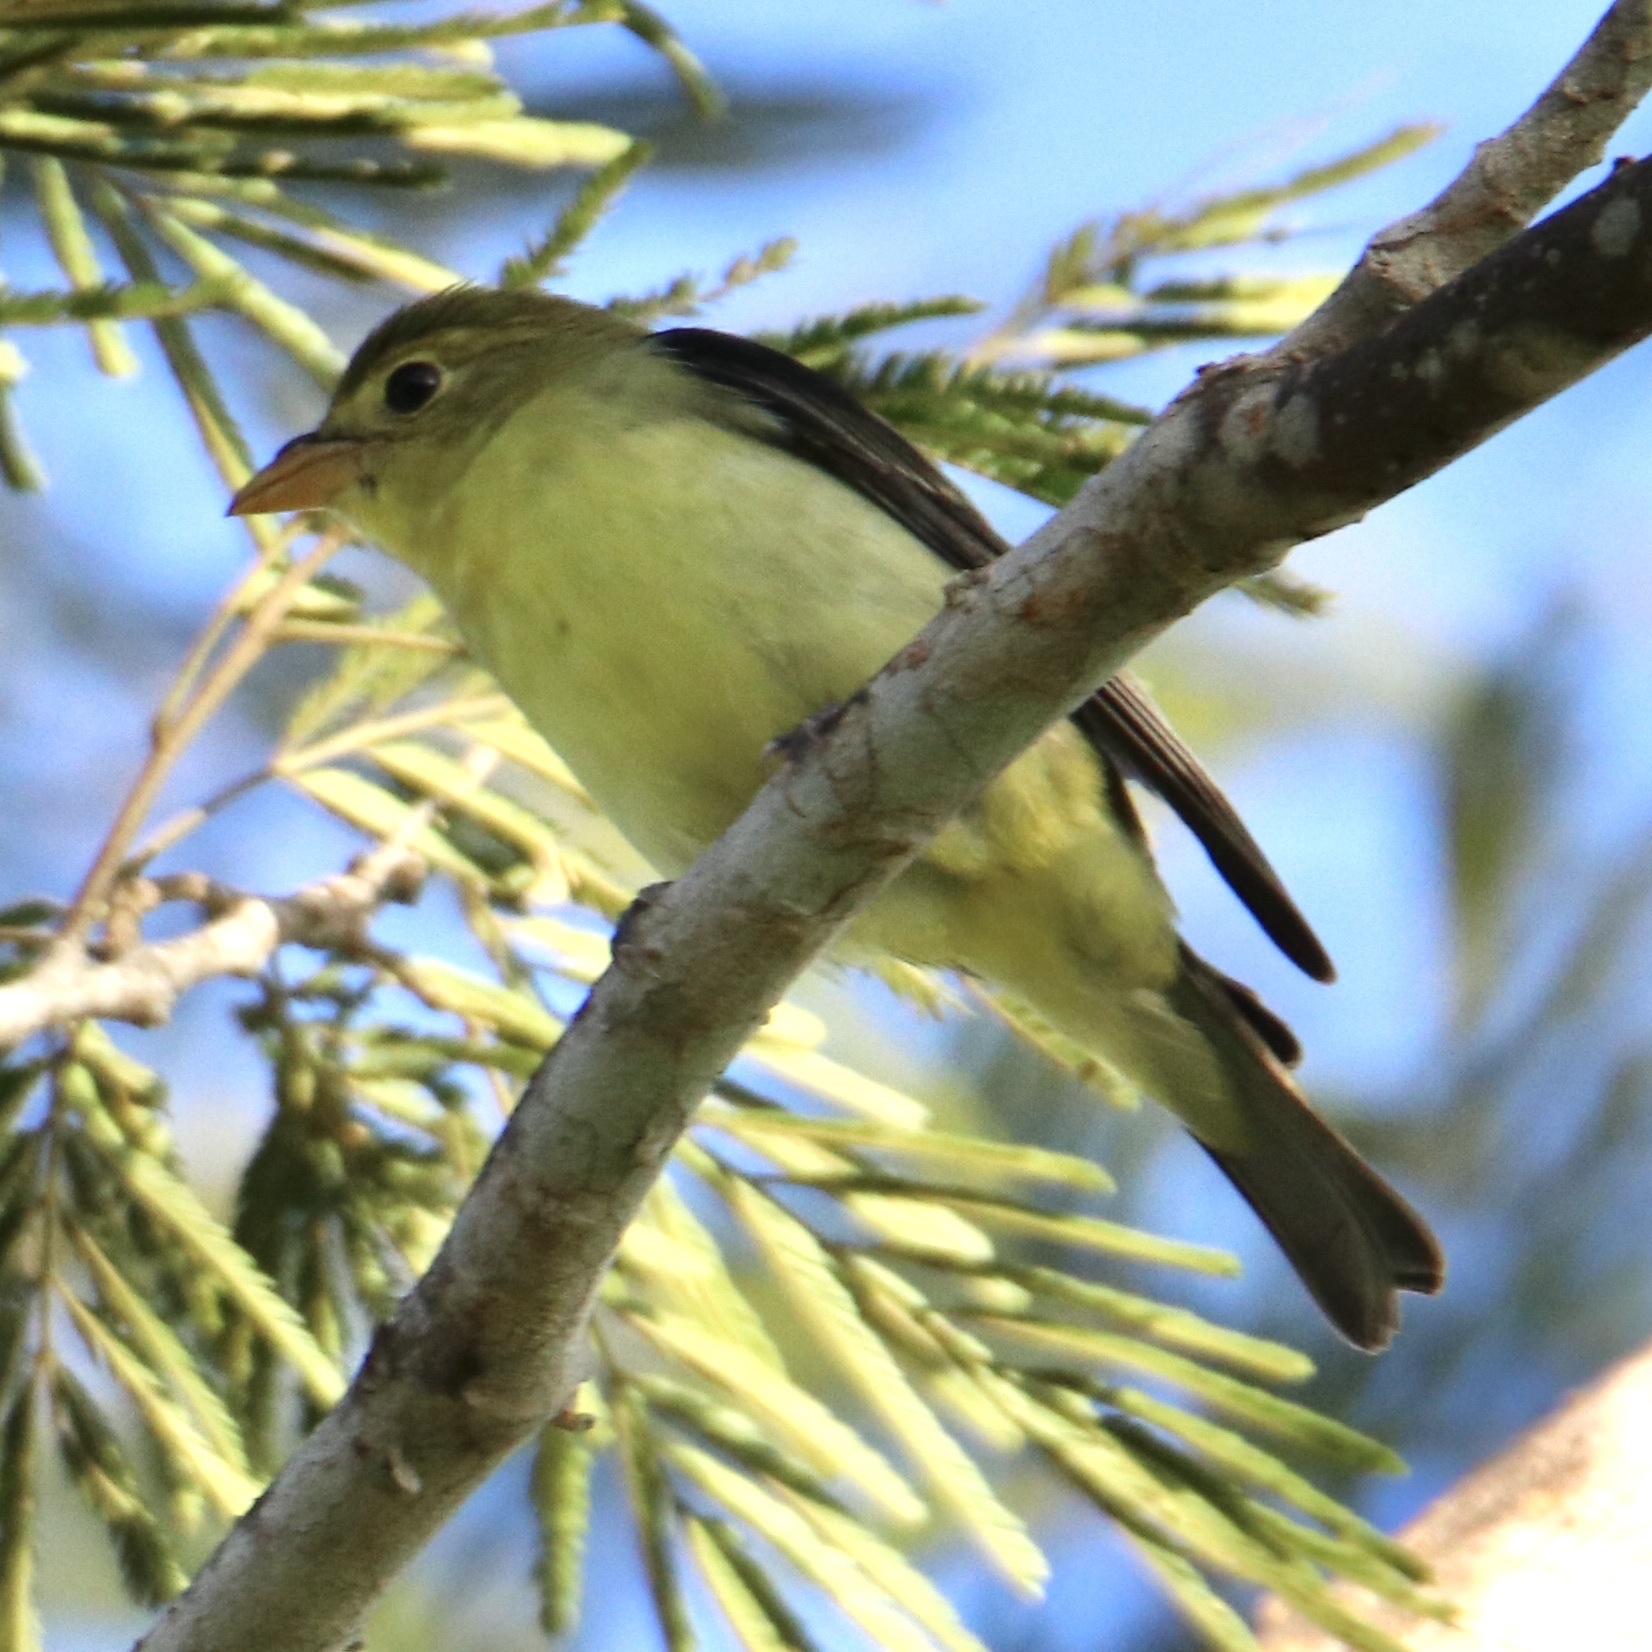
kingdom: Animalia
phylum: Chordata
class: Aves
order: Passeriformes
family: Cardinalidae
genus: Piranga
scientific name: Piranga olivacea
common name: Scarlet tanager
